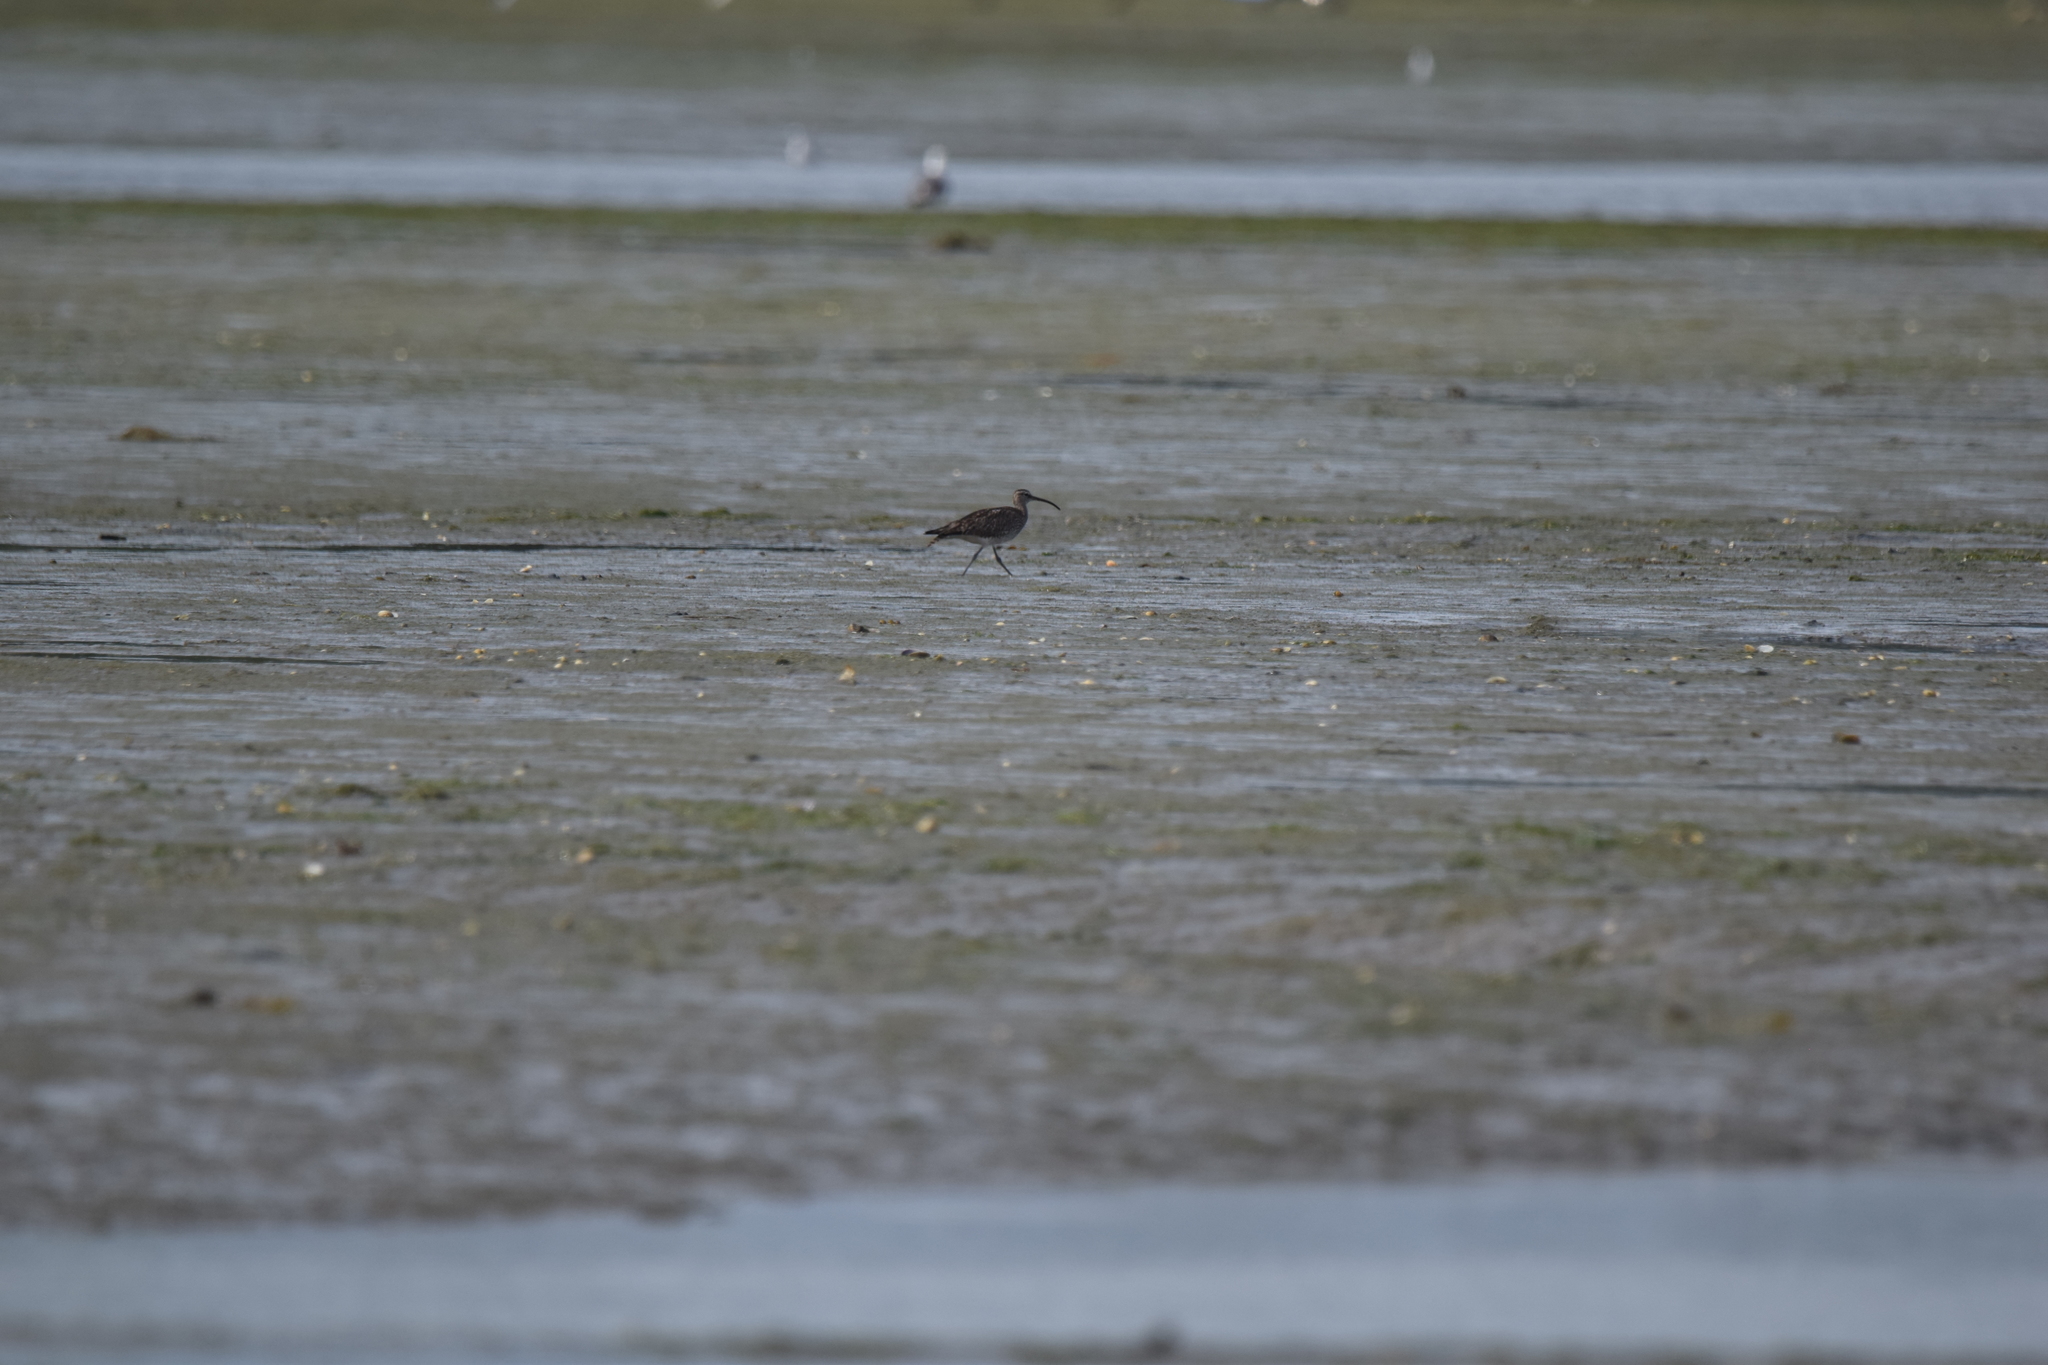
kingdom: Animalia
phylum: Chordata
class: Aves
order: Charadriiformes
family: Scolopacidae
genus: Numenius
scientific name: Numenius phaeopus
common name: Whimbrel
